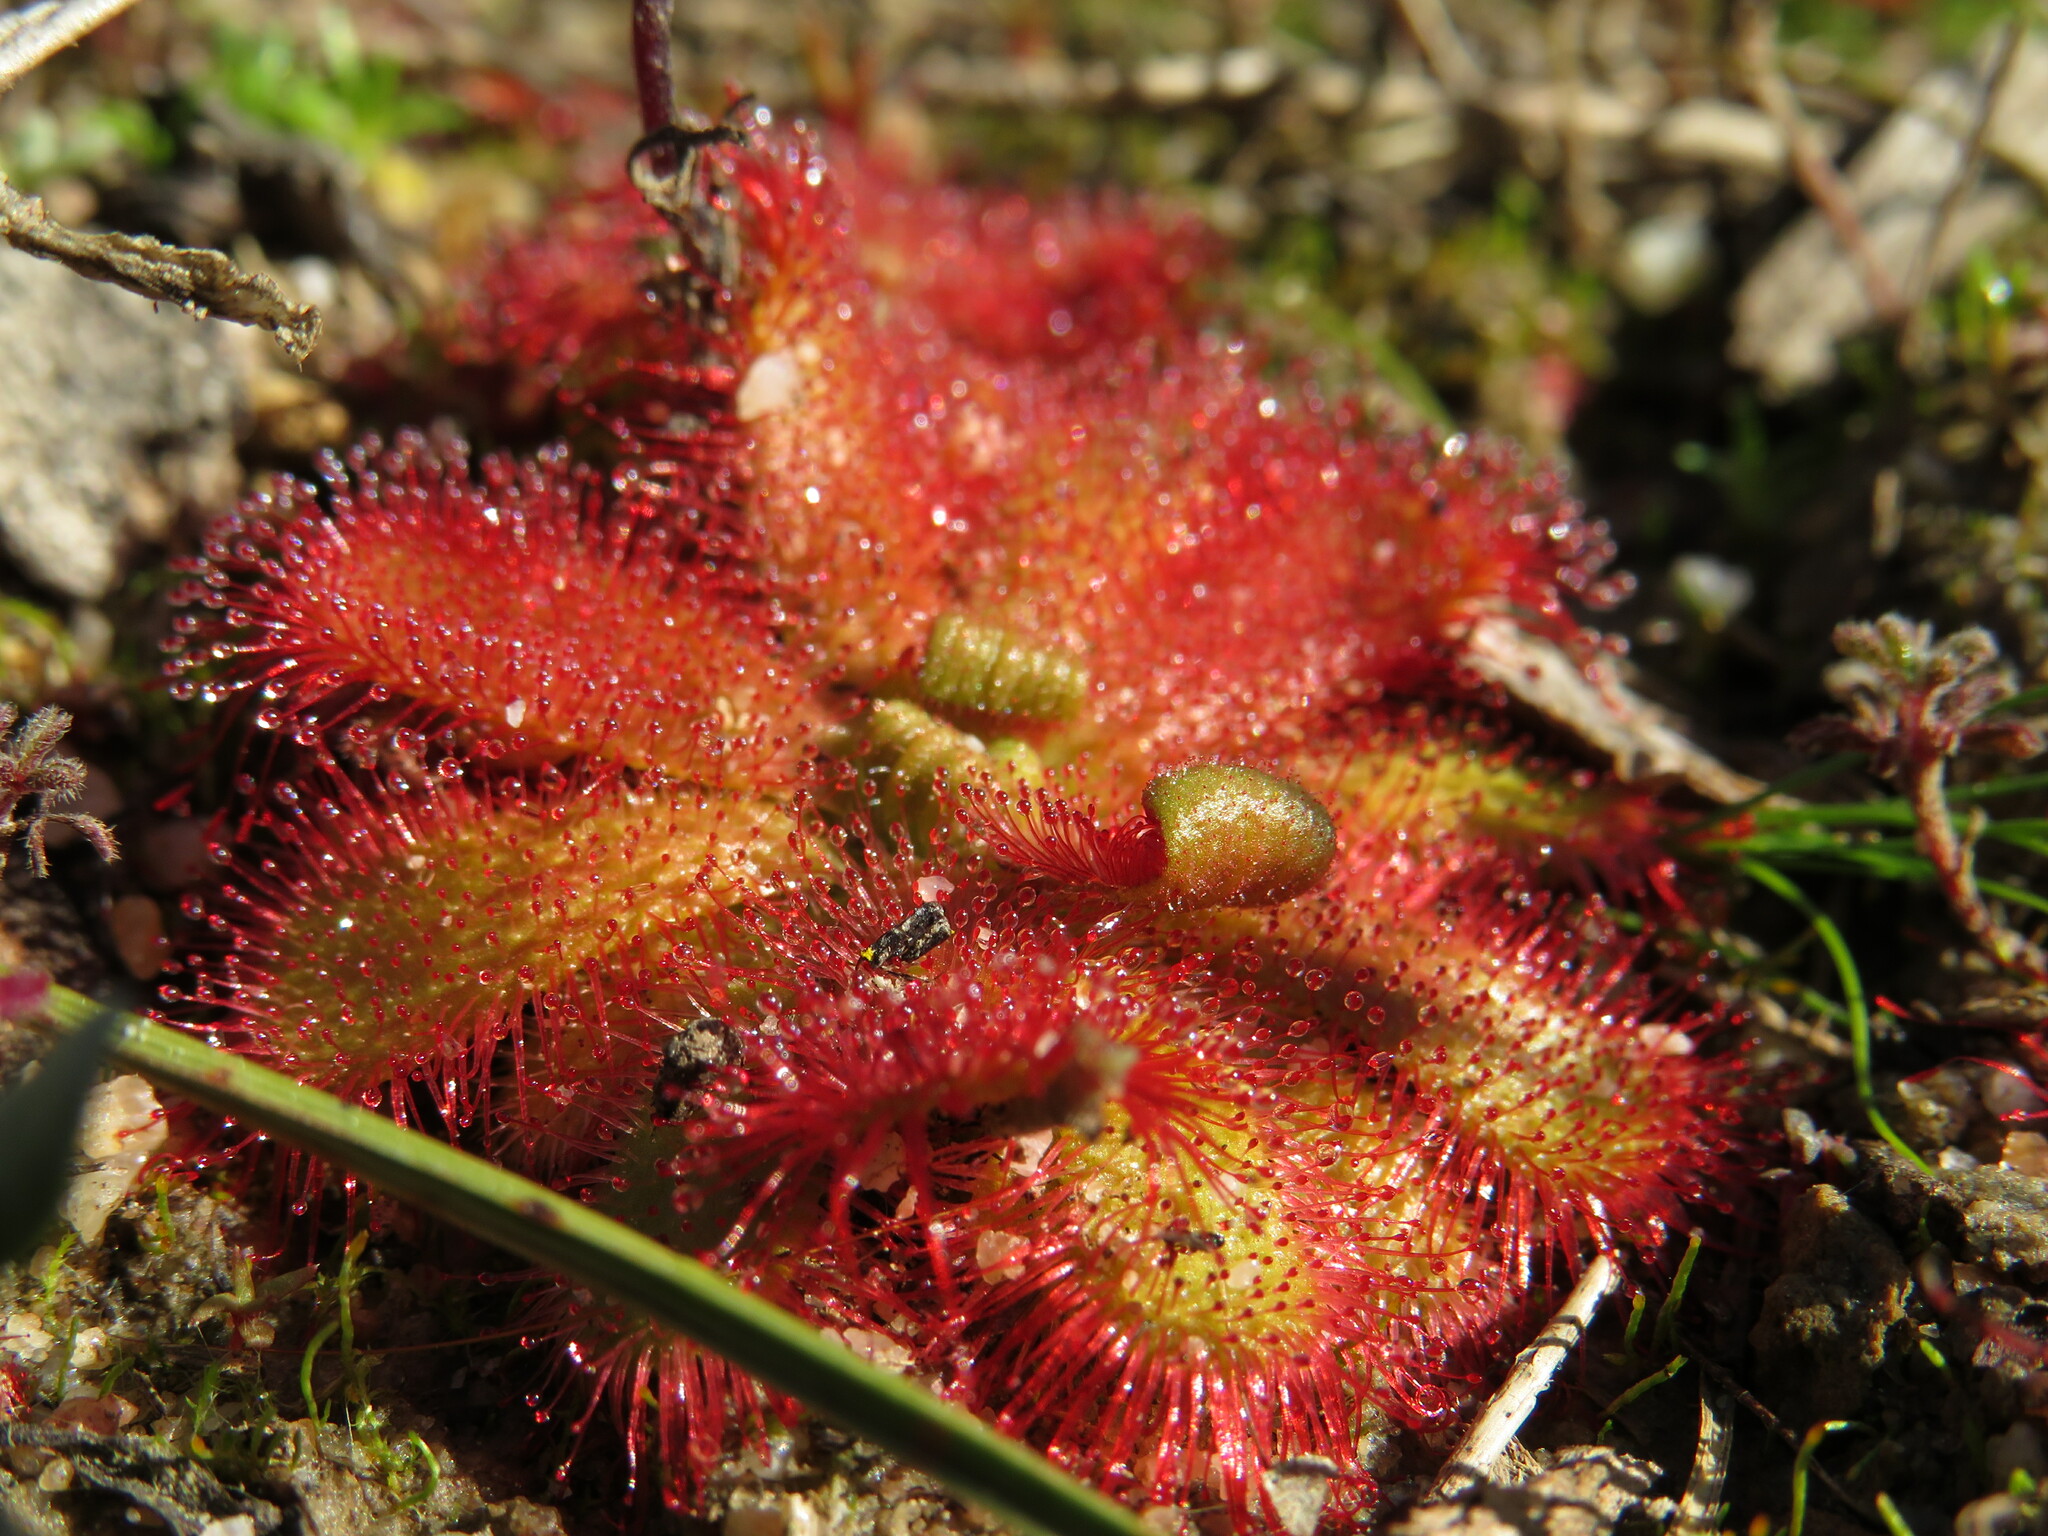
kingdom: Plantae
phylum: Tracheophyta
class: Magnoliopsida
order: Caryophyllales
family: Droseraceae
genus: Drosera
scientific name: Drosera trinervia
